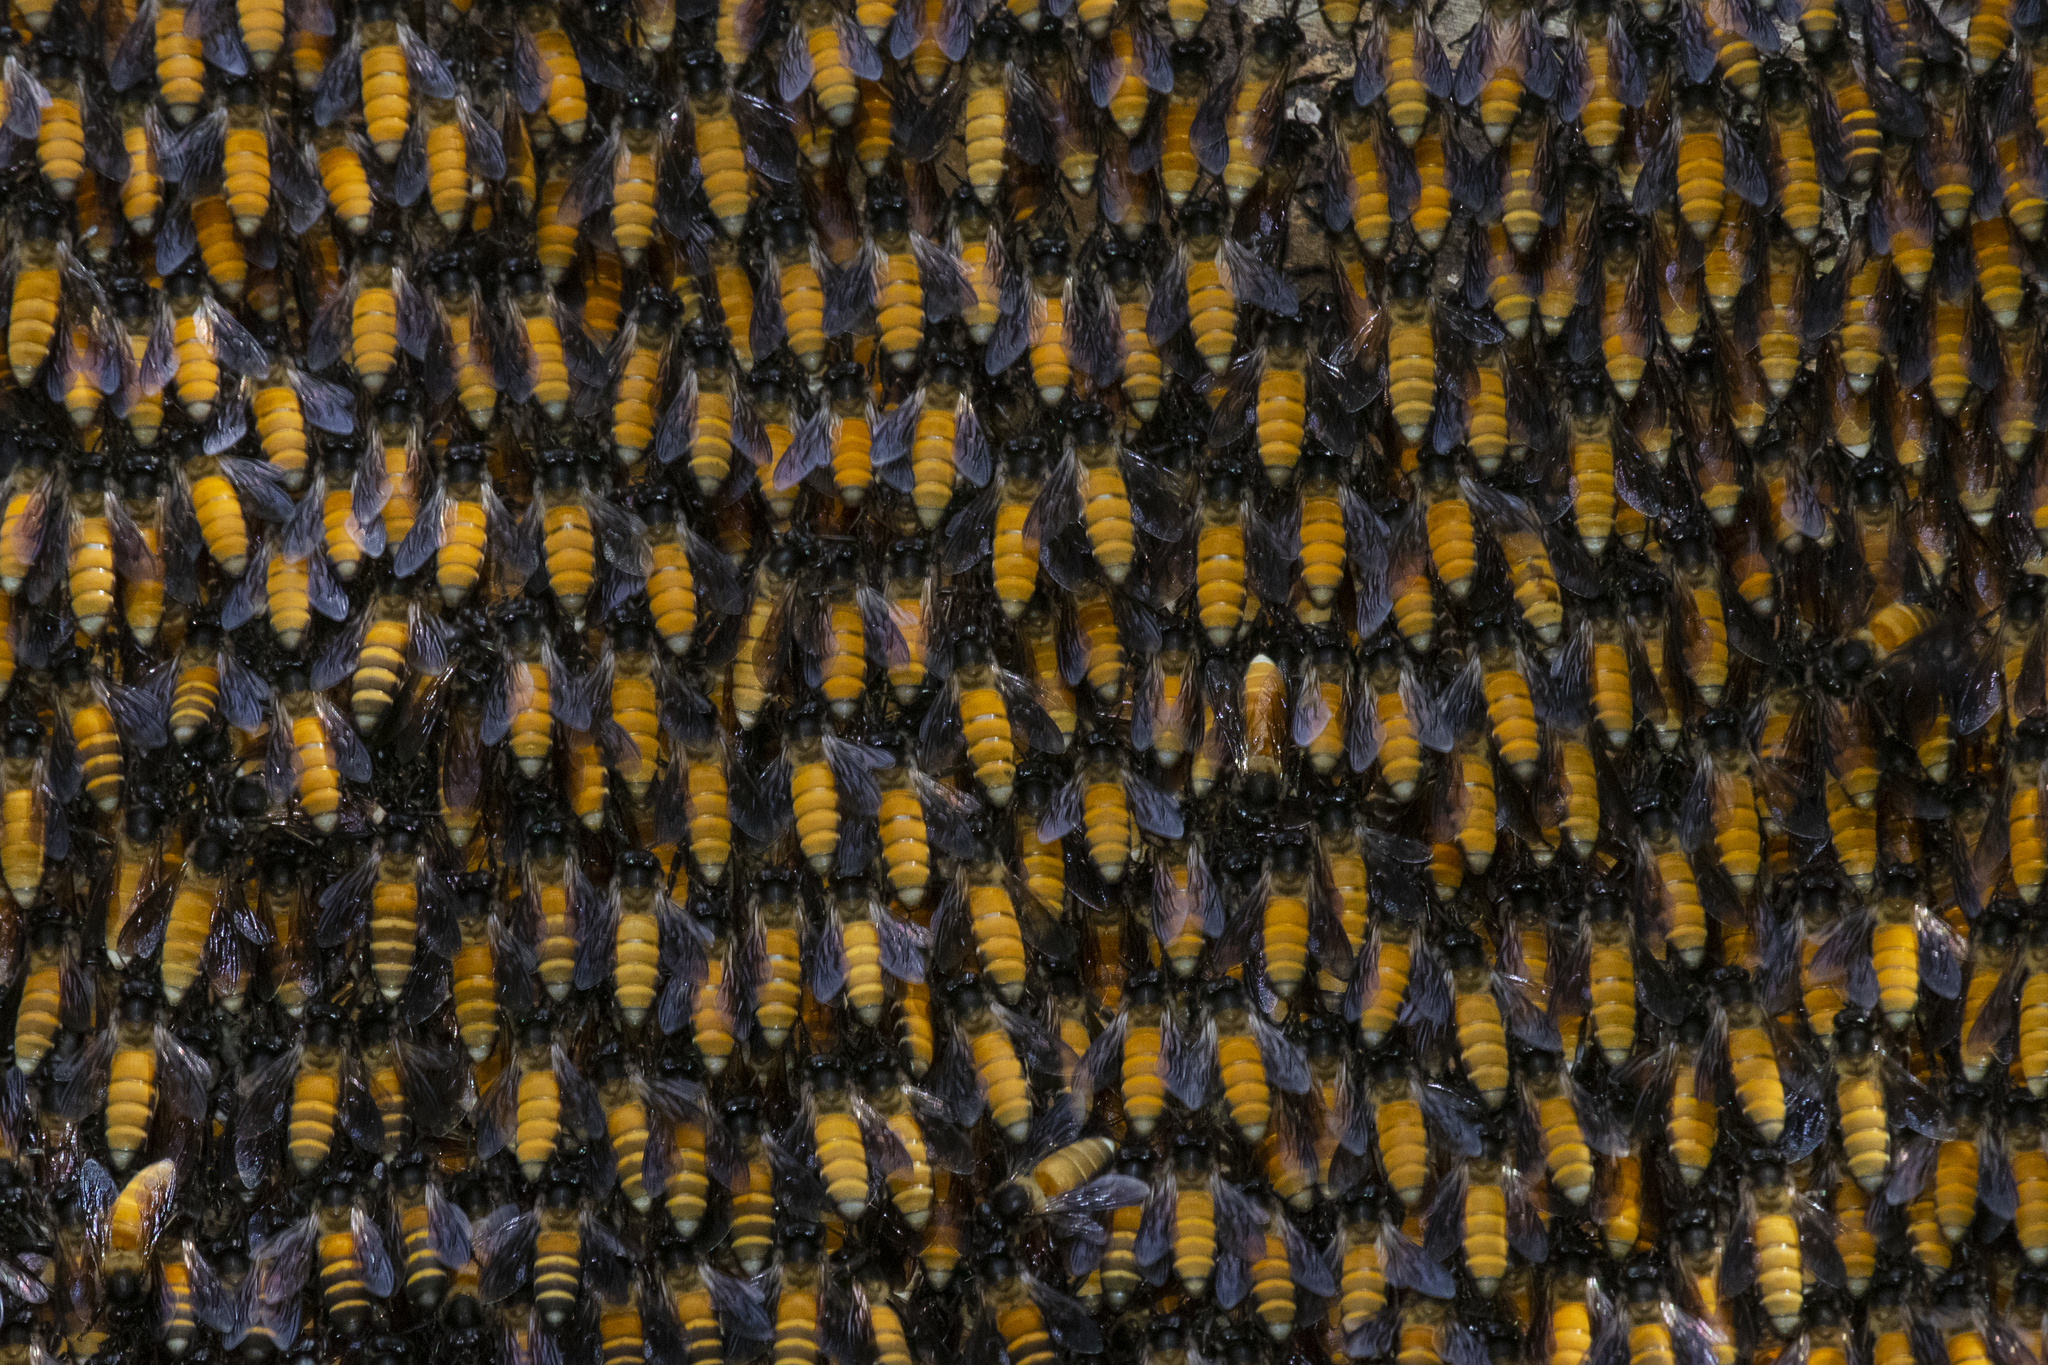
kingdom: Animalia
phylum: Arthropoda
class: Insecta
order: Hymenoptera
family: Apidae
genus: Apis
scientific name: Apis dorsata
